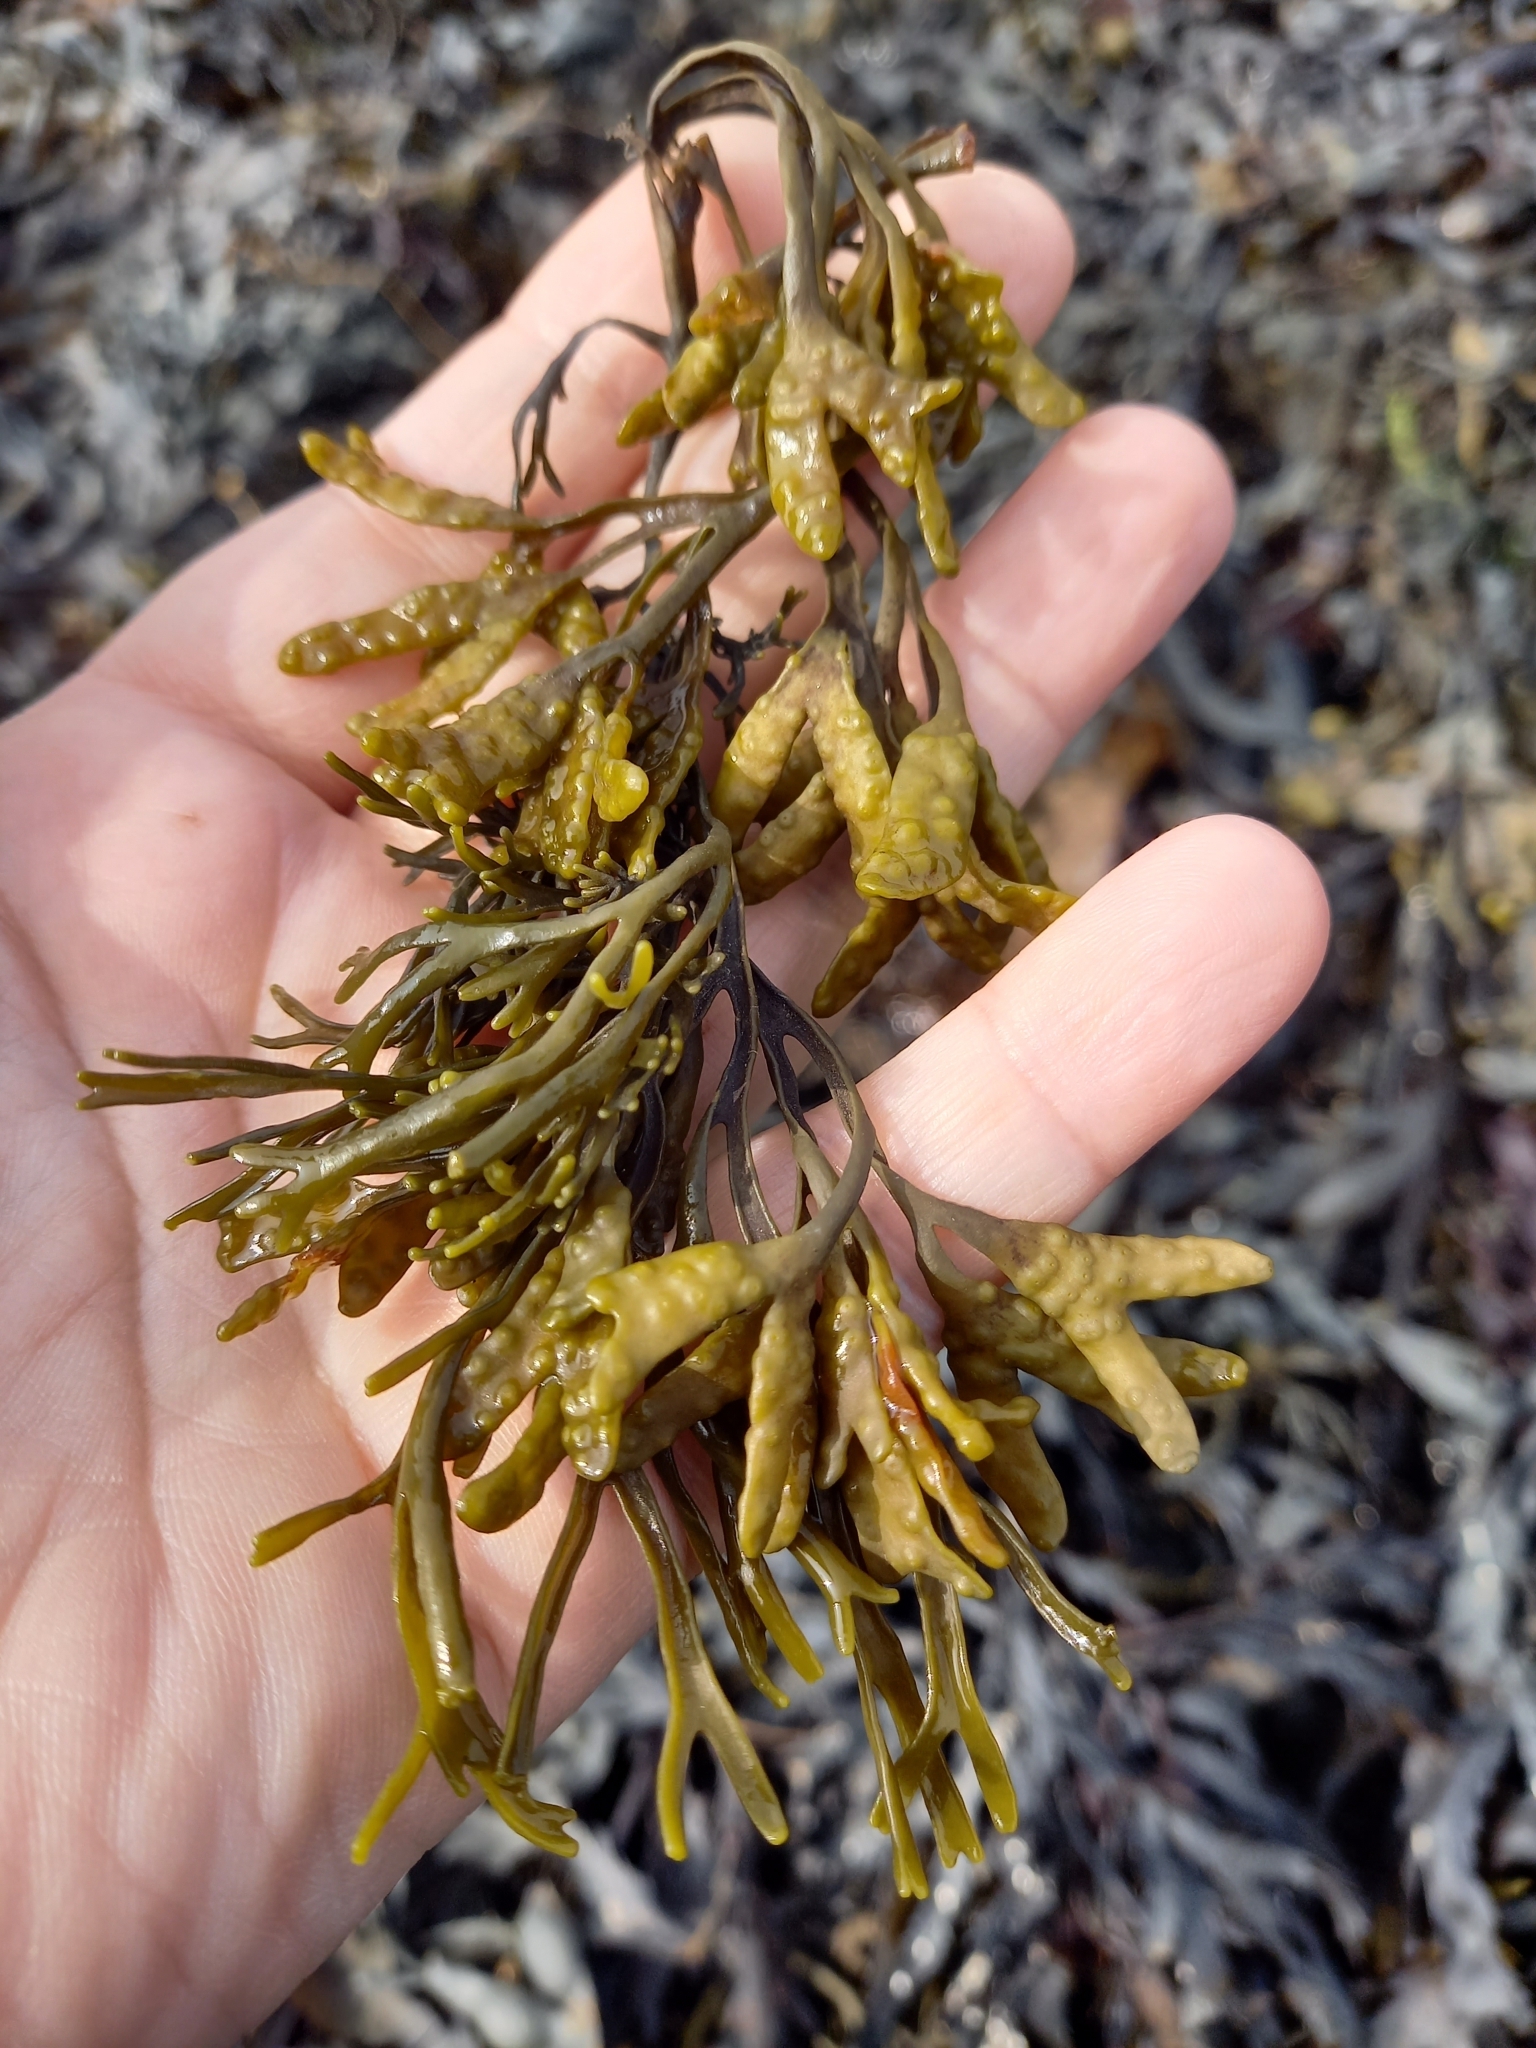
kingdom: Chromista
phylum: Ochrophyta
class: Phaeophyceae
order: Fucales
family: Fucaceae
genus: Pelvetia
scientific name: Pelvetia canaliculata
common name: Channelled wrack
